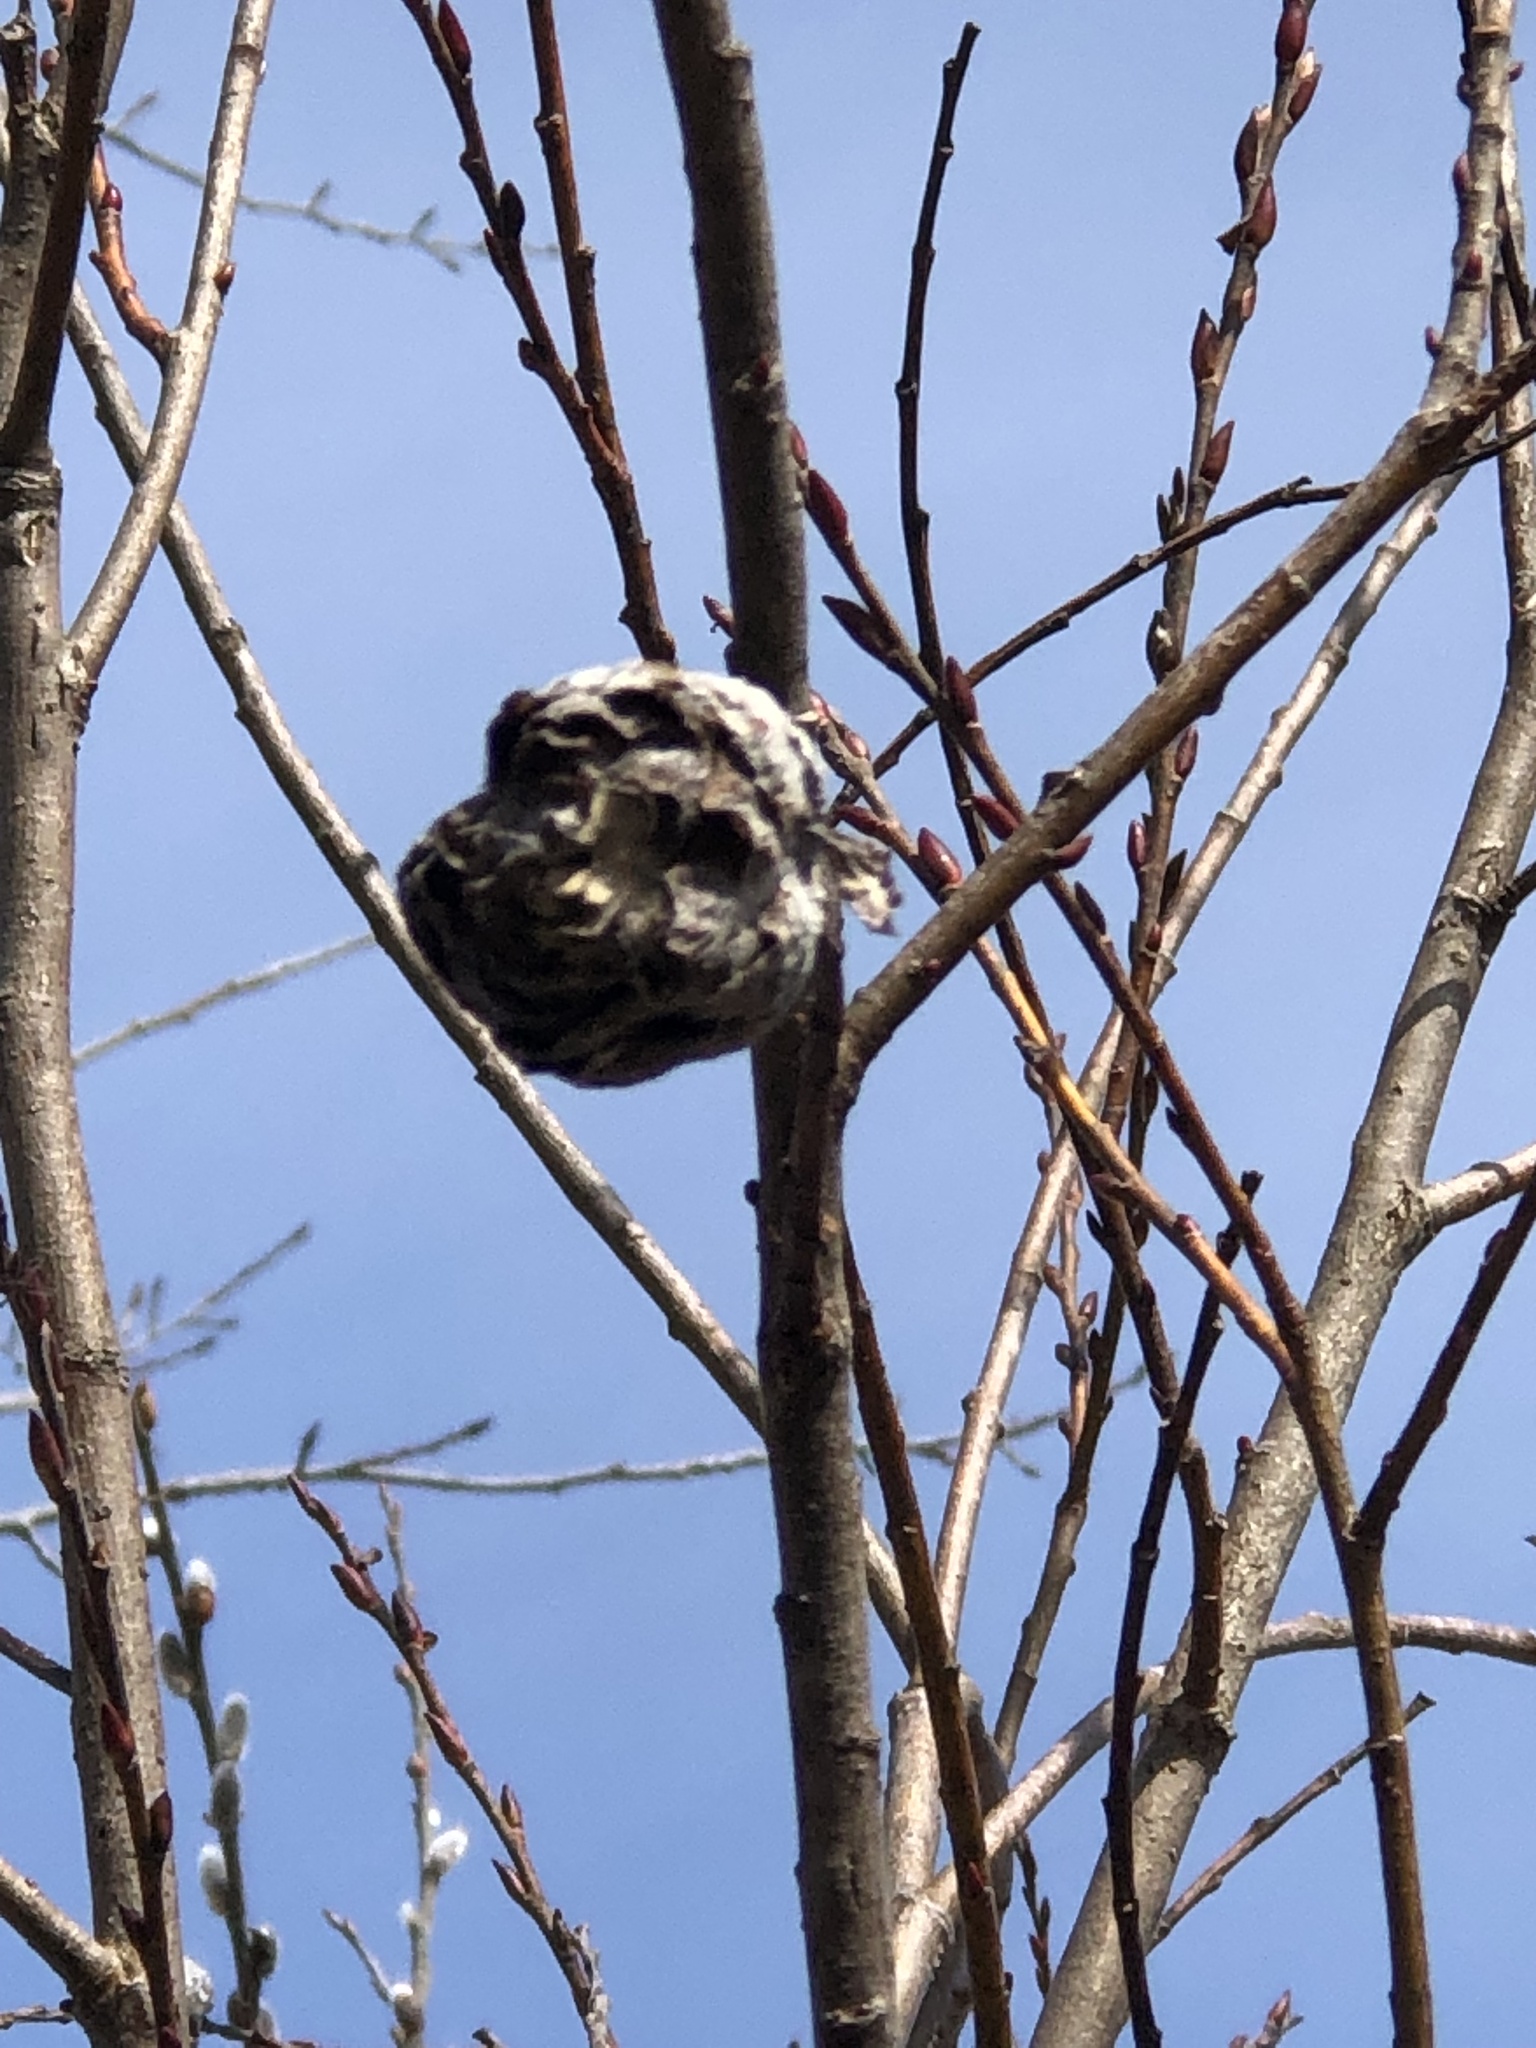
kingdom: Animalia
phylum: Arthropoda
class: Insecta
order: Diptera
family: Cecidomyiidae
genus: Rabdophaga
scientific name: Rabdophaga strobiloides
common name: Willow pinecone gall midge
